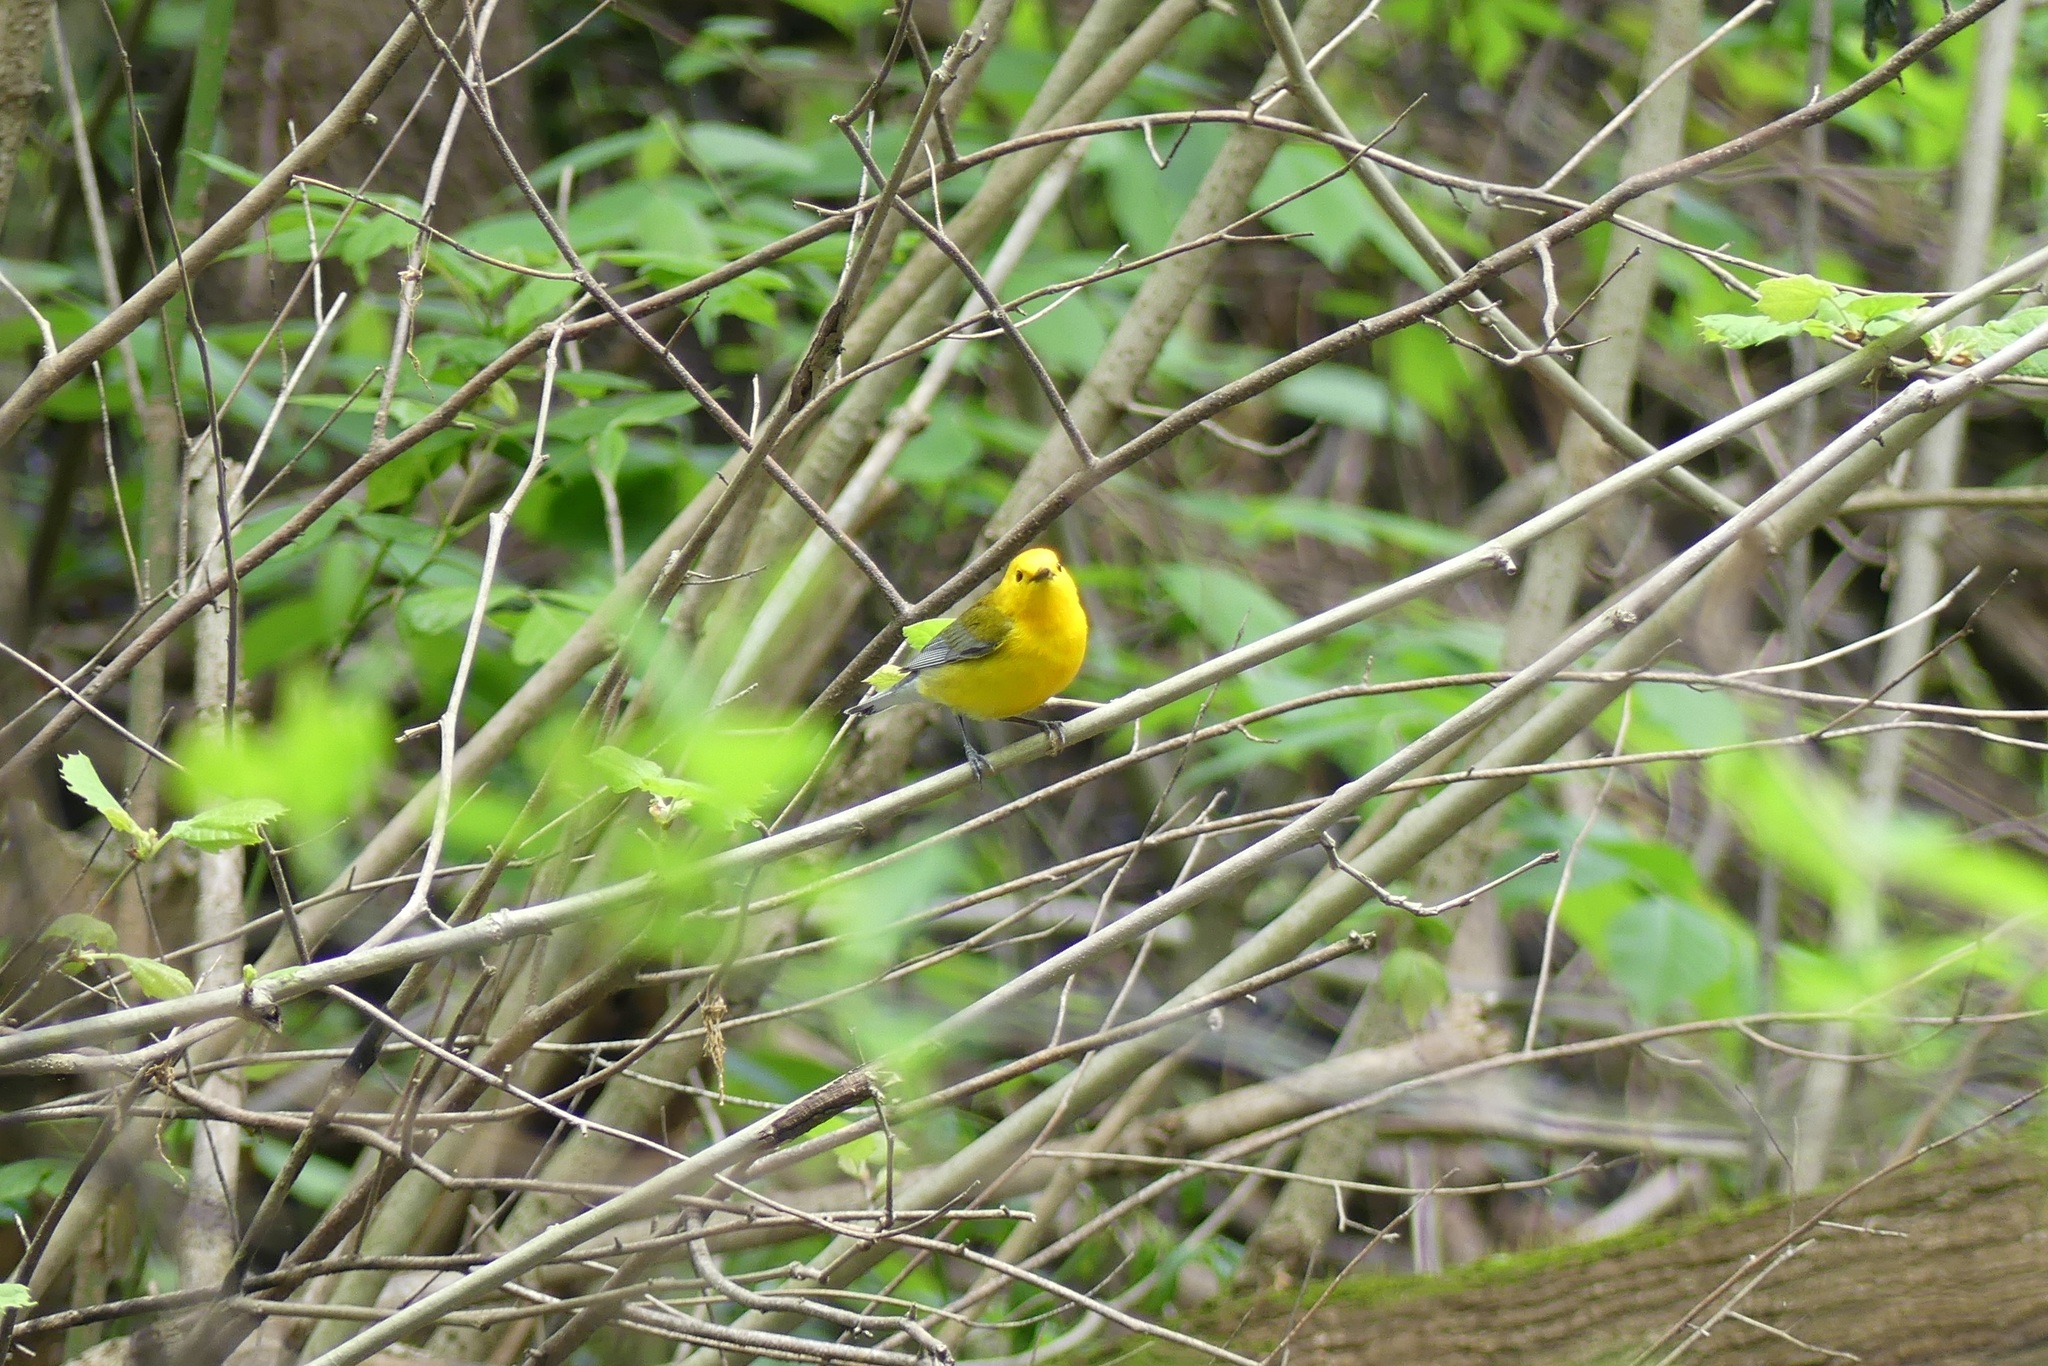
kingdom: Animalia
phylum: Chordata
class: Aves
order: Passeriformes
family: Parulidae
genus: Protonotaria
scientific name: Protonotaria citrea
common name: Prothonotary warbler
